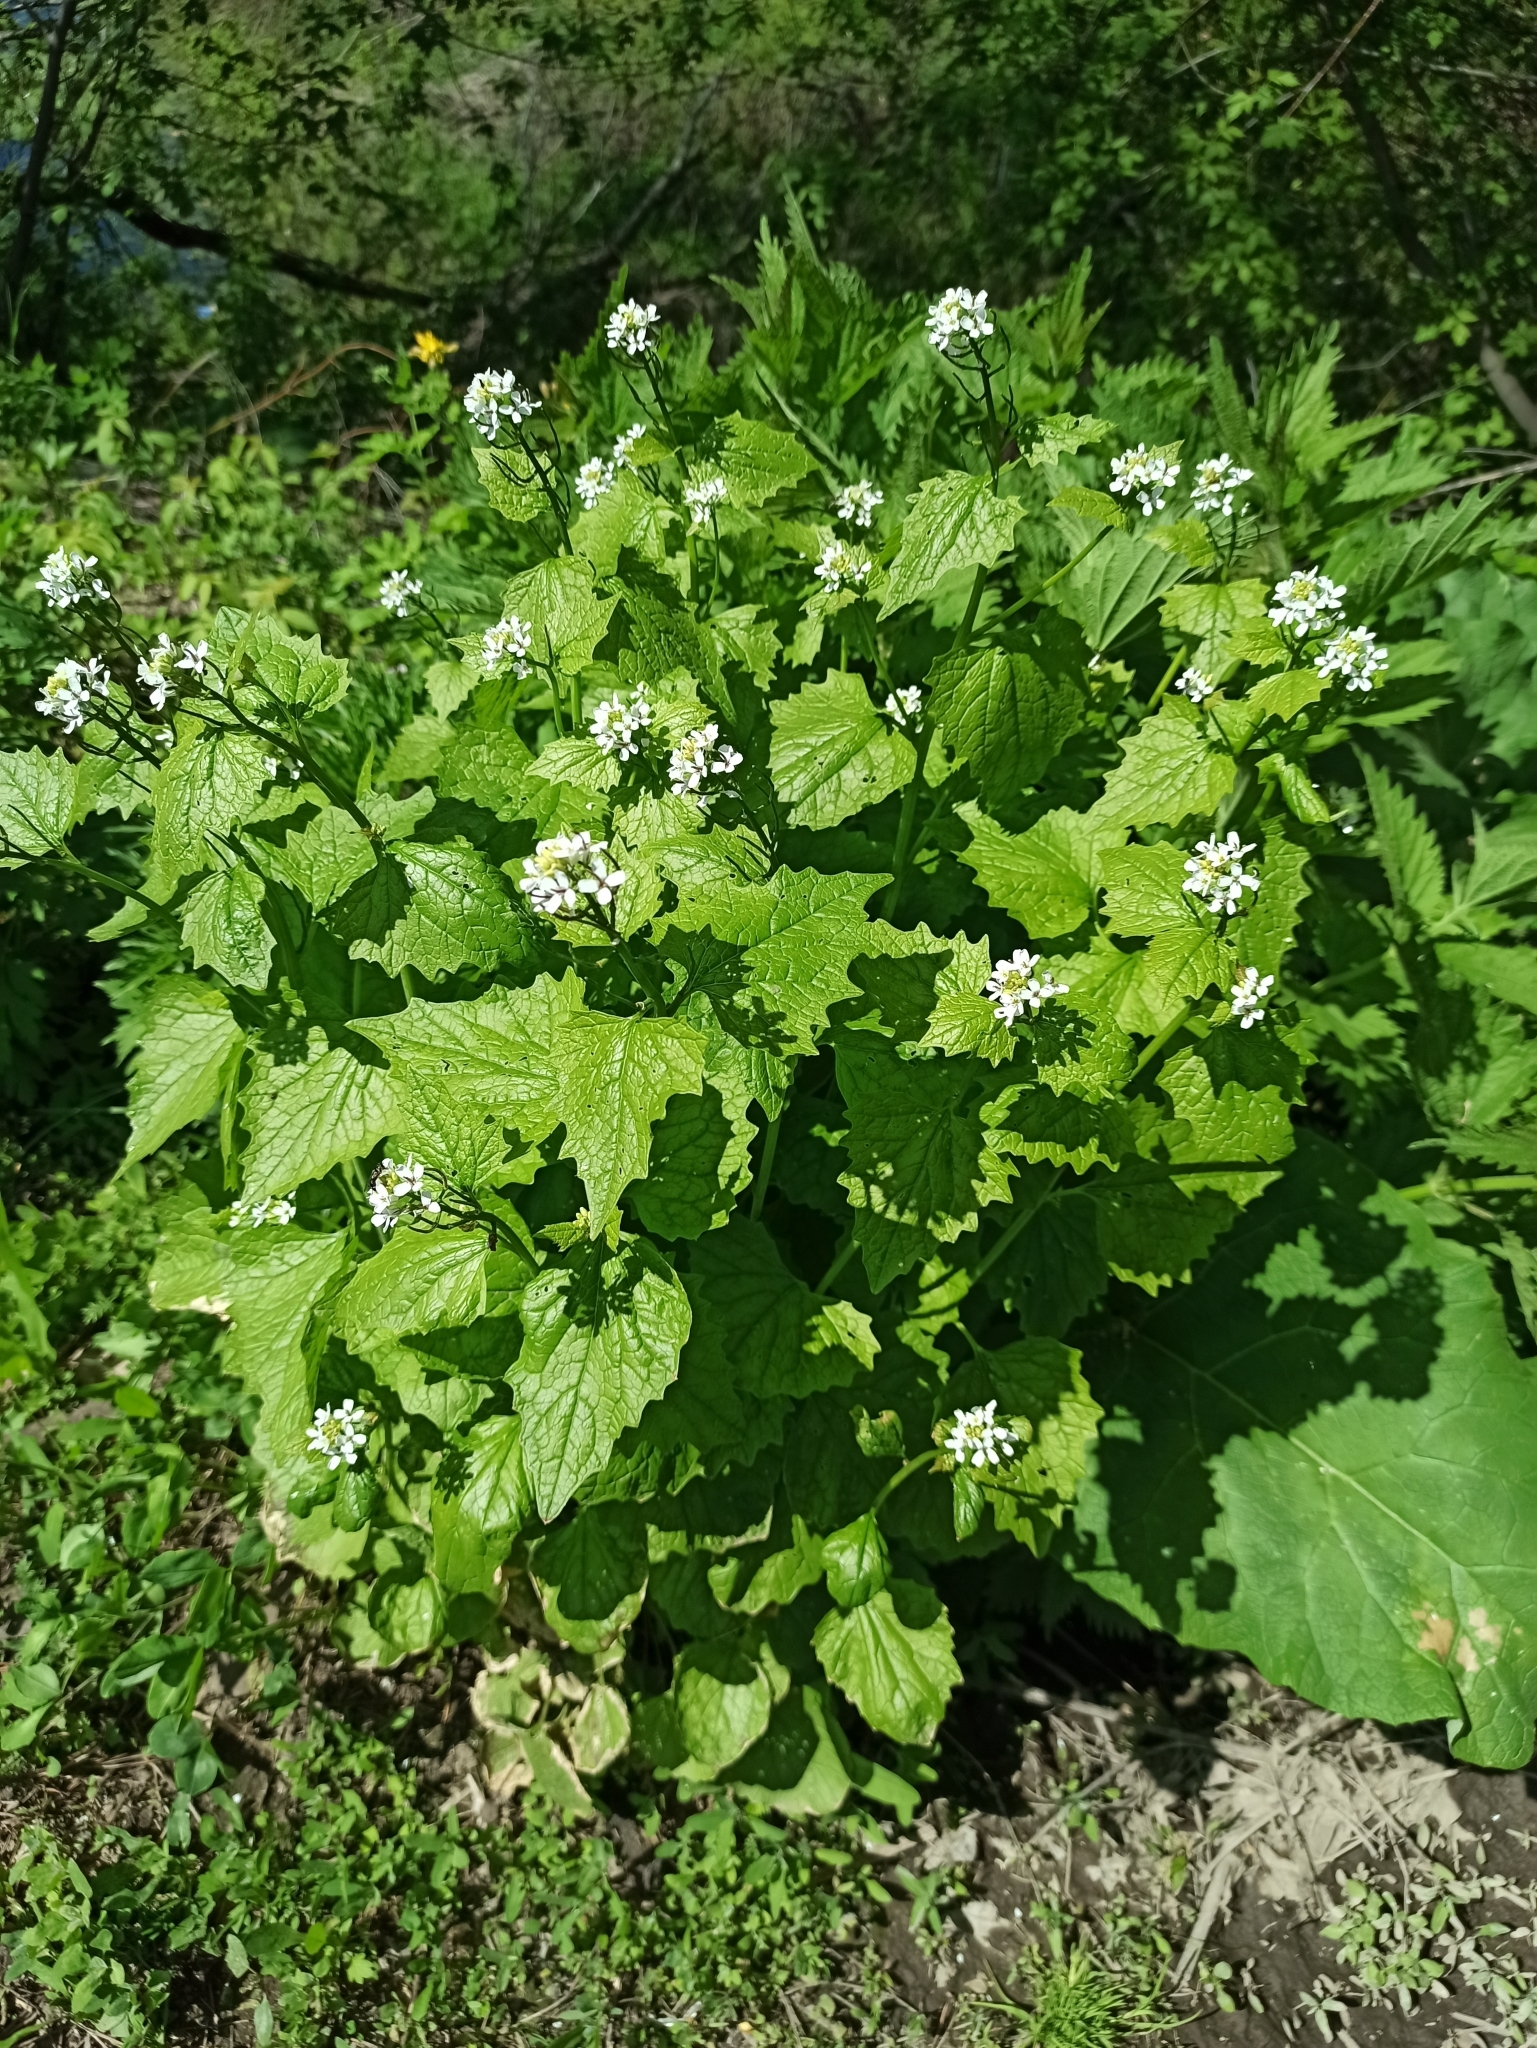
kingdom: Plantae
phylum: Tracheophyta
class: Magnoliopsida
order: Brassicales
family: Brassicaceae
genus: Alliaria
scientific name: Alliaria petiolata
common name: Garlic mustard
